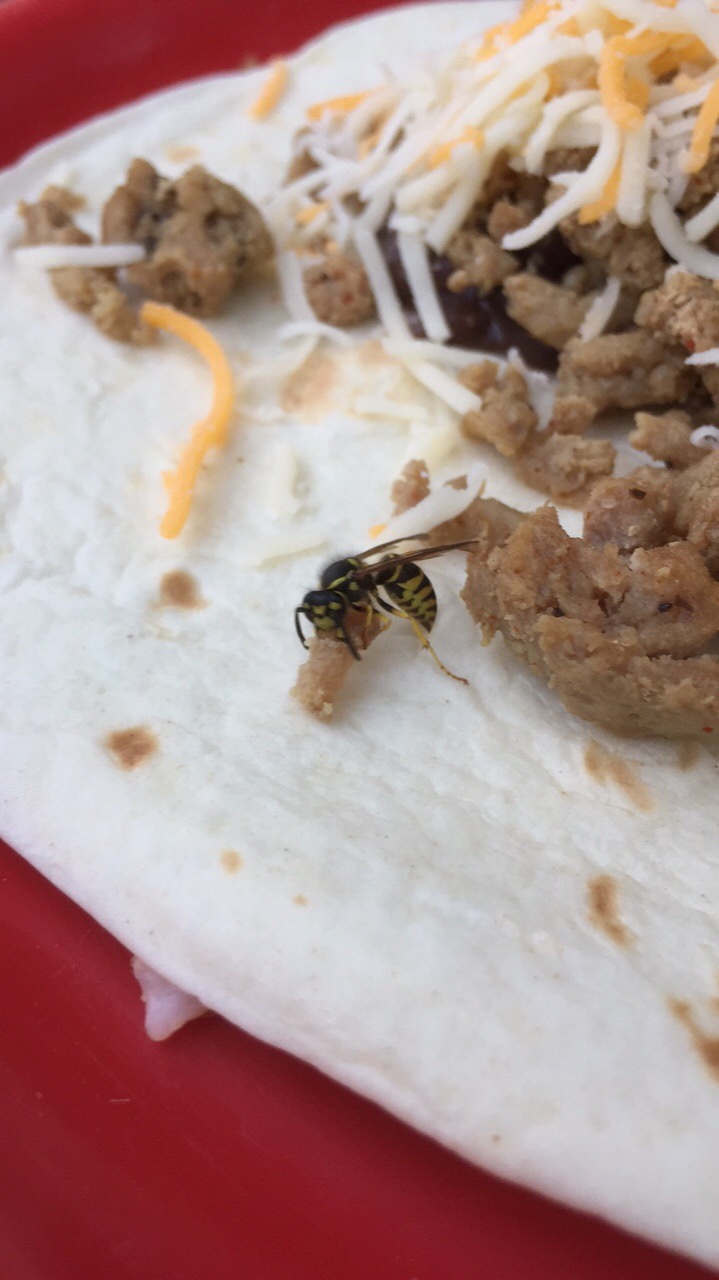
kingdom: Animalia
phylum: Arthropoda
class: Insecta
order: Hymenoptera
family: Vespidae
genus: Vespula
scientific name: Vespula maculifrons
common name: Eastern yellowjacket
